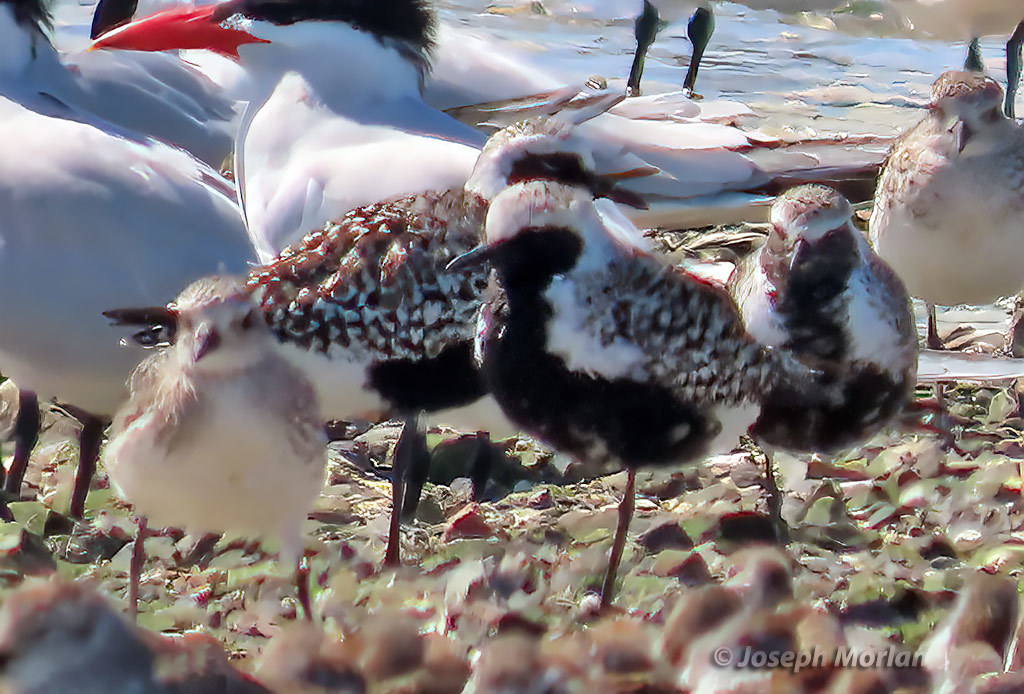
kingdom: Animalia
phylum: Chordata
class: Aves
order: Charadriiformes
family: Charadriidae
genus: Pluvialis
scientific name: Pluvialis squatarola
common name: Grey plover
